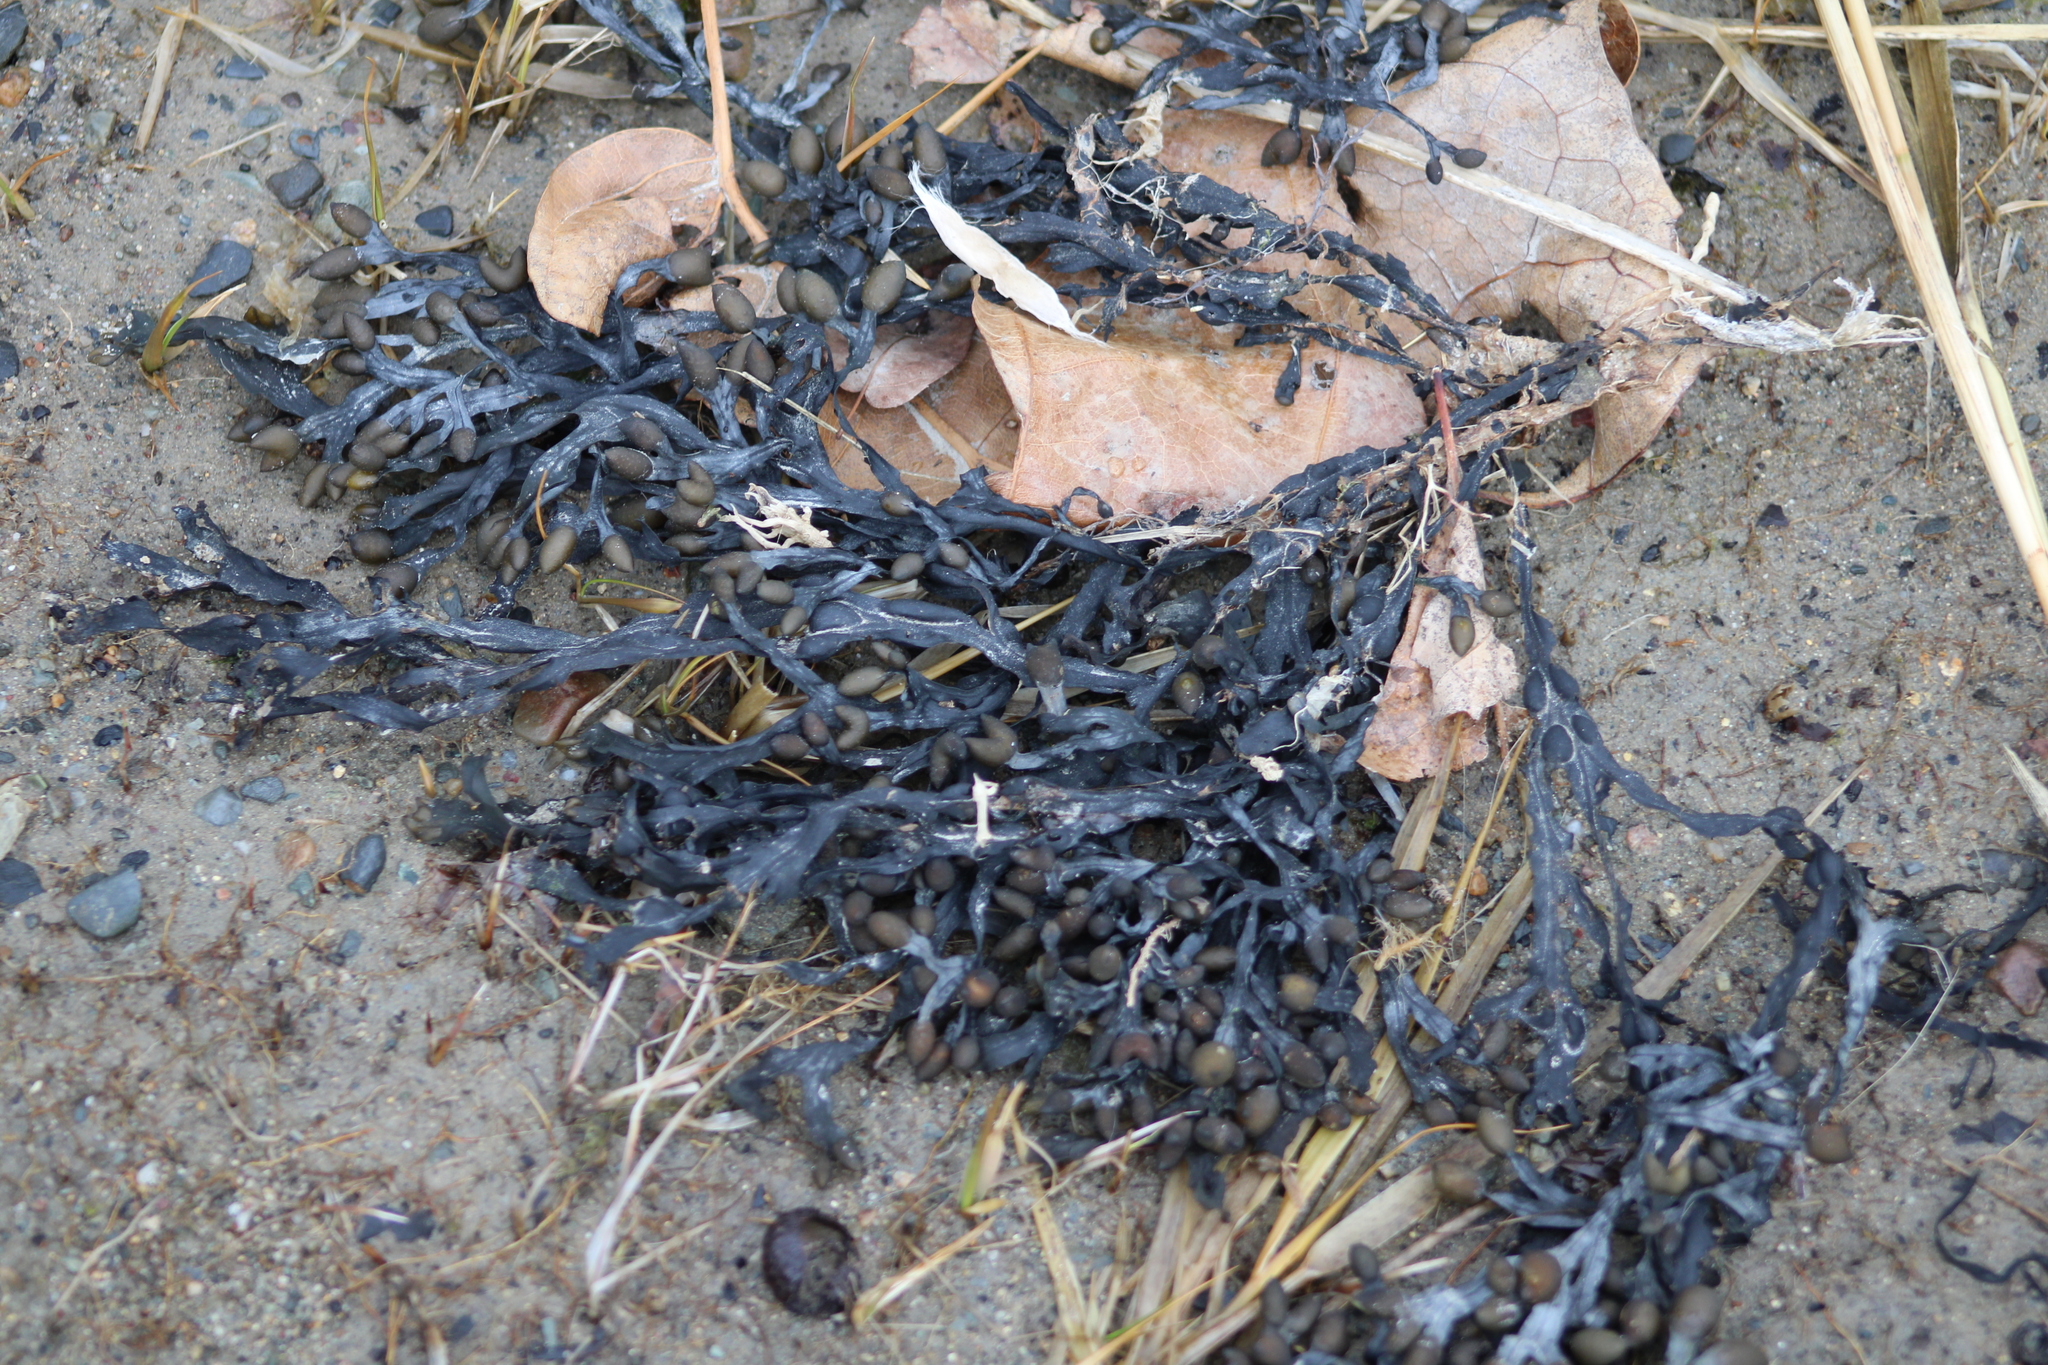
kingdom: Chromista
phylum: Ochrophyta
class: Phaeophyceae
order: Fucales
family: Fucaceae
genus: Fucus
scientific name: Fucus vesiculosus
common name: Bladder wrack
